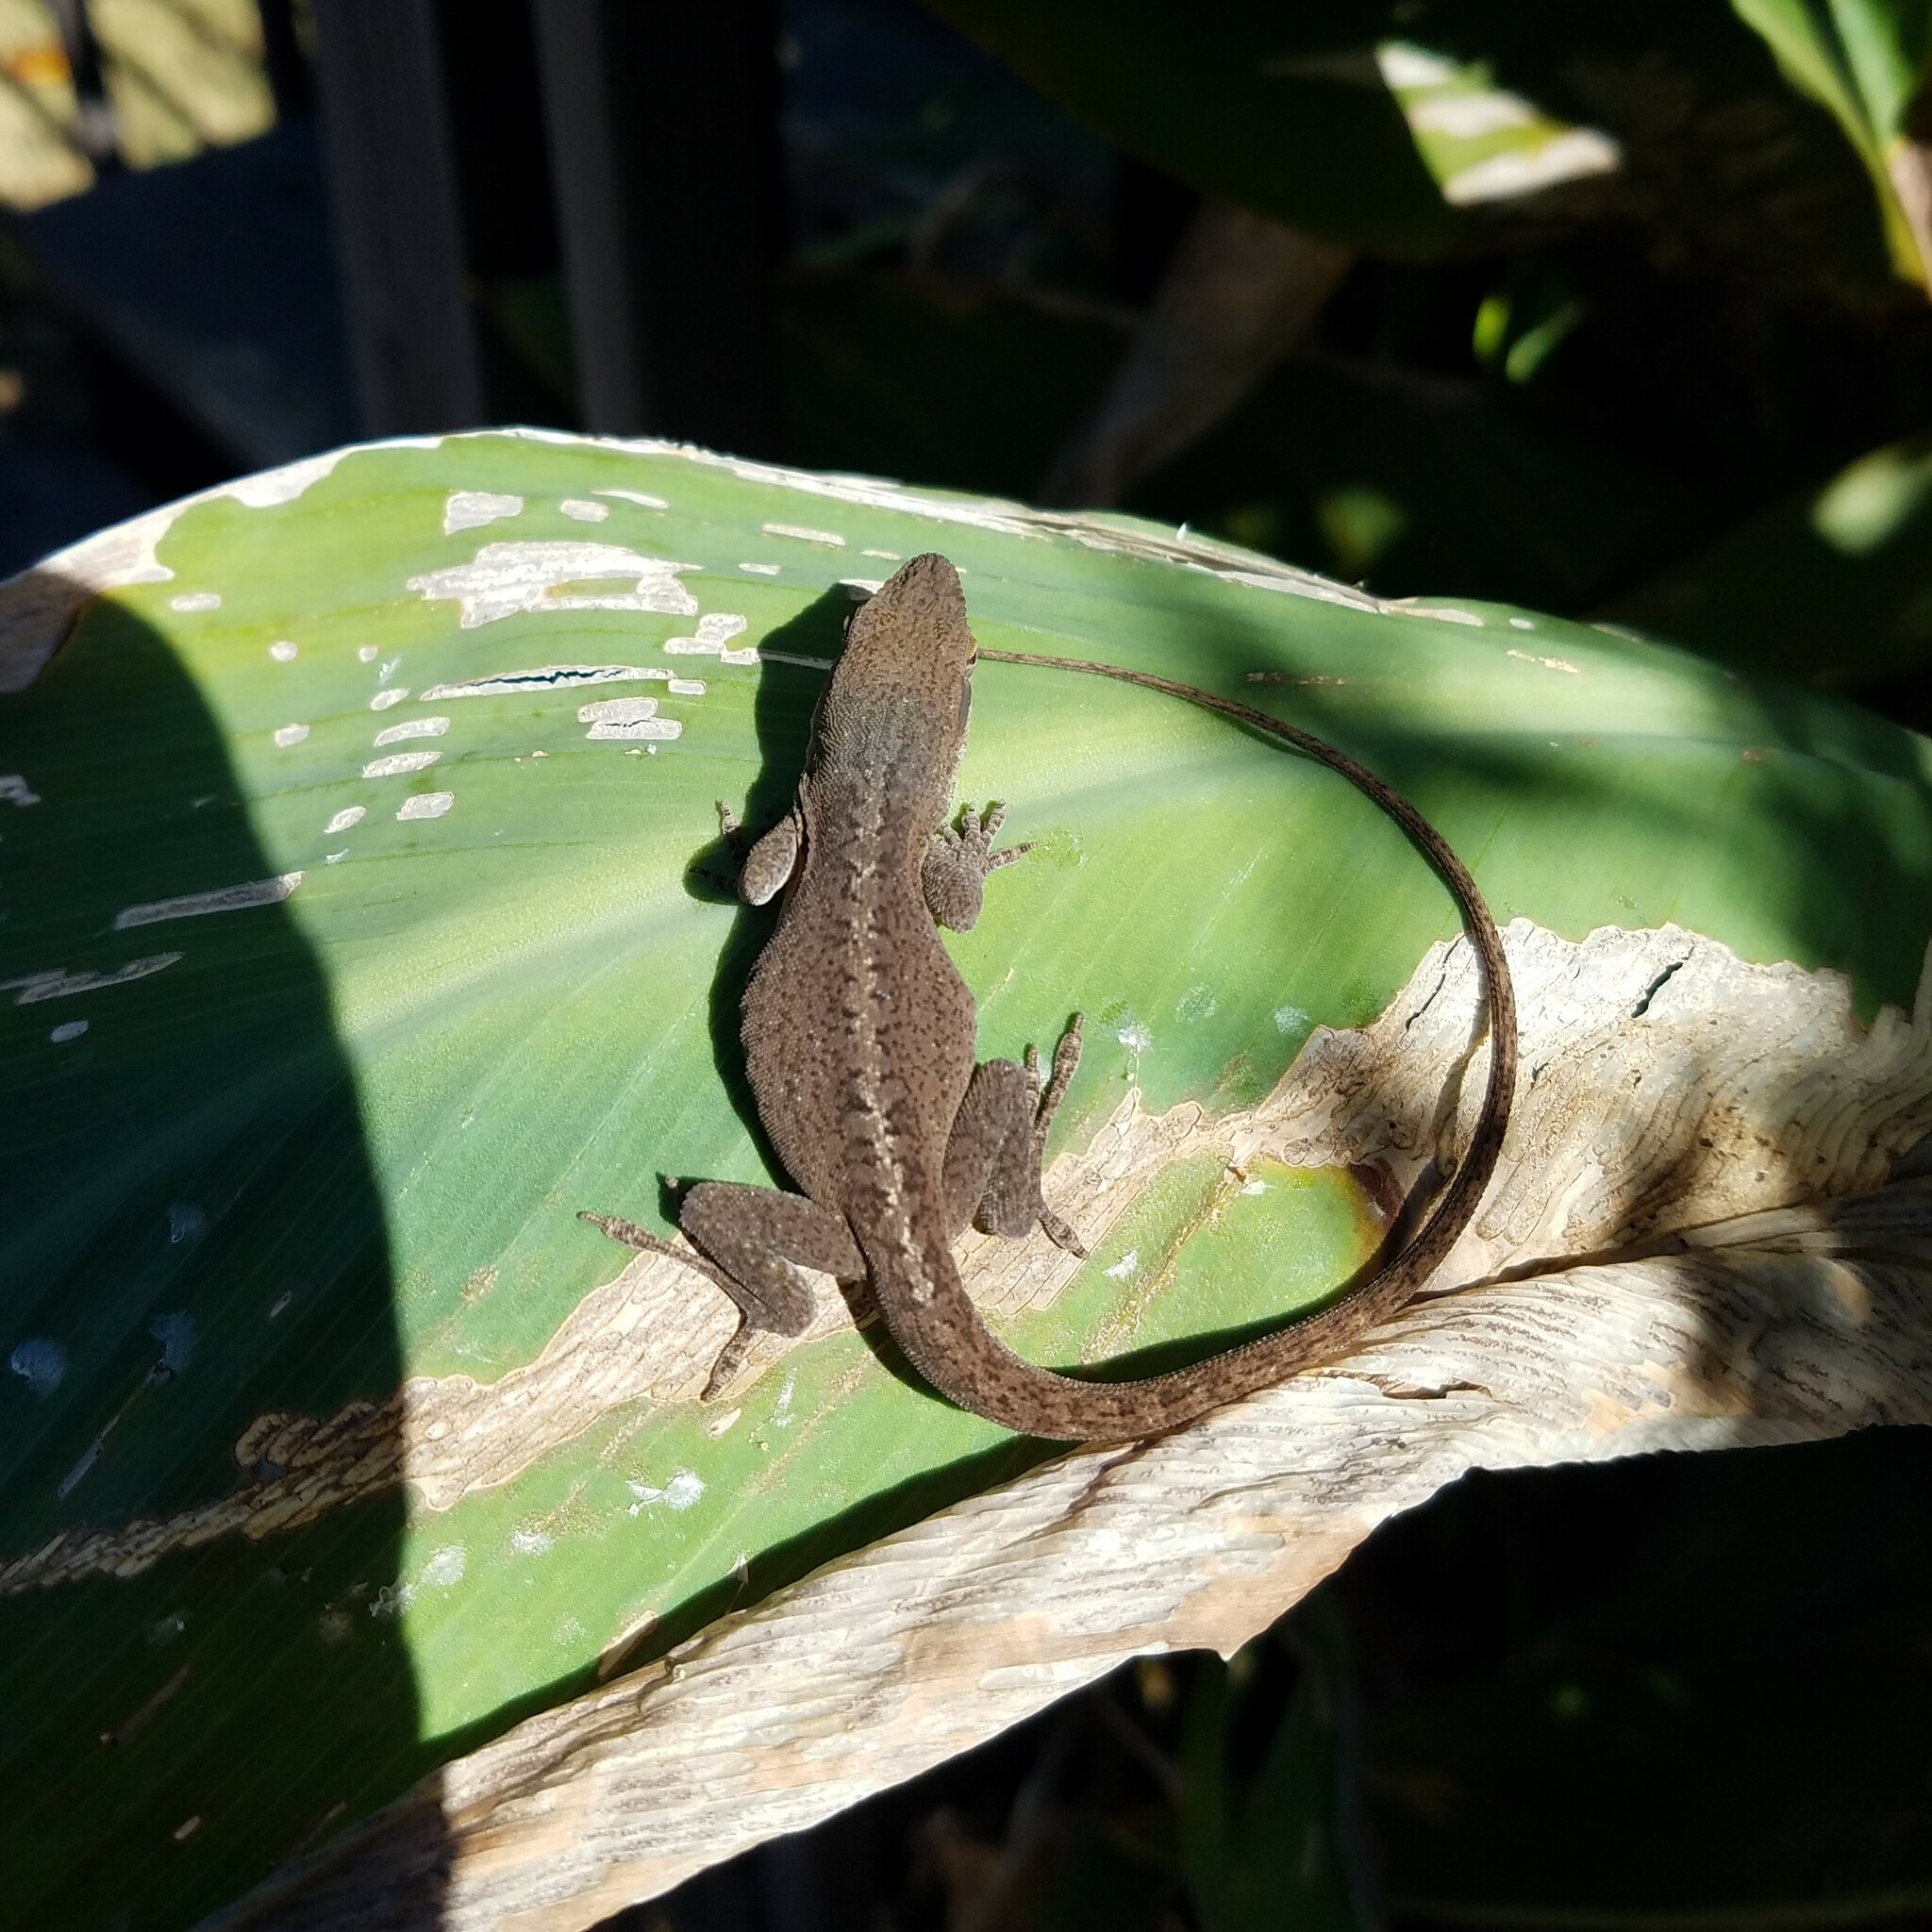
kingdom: Animalia
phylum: Chordata
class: Squamata
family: Dactyloidae
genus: Anolis
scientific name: Anolis carolinensis
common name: Green anole
